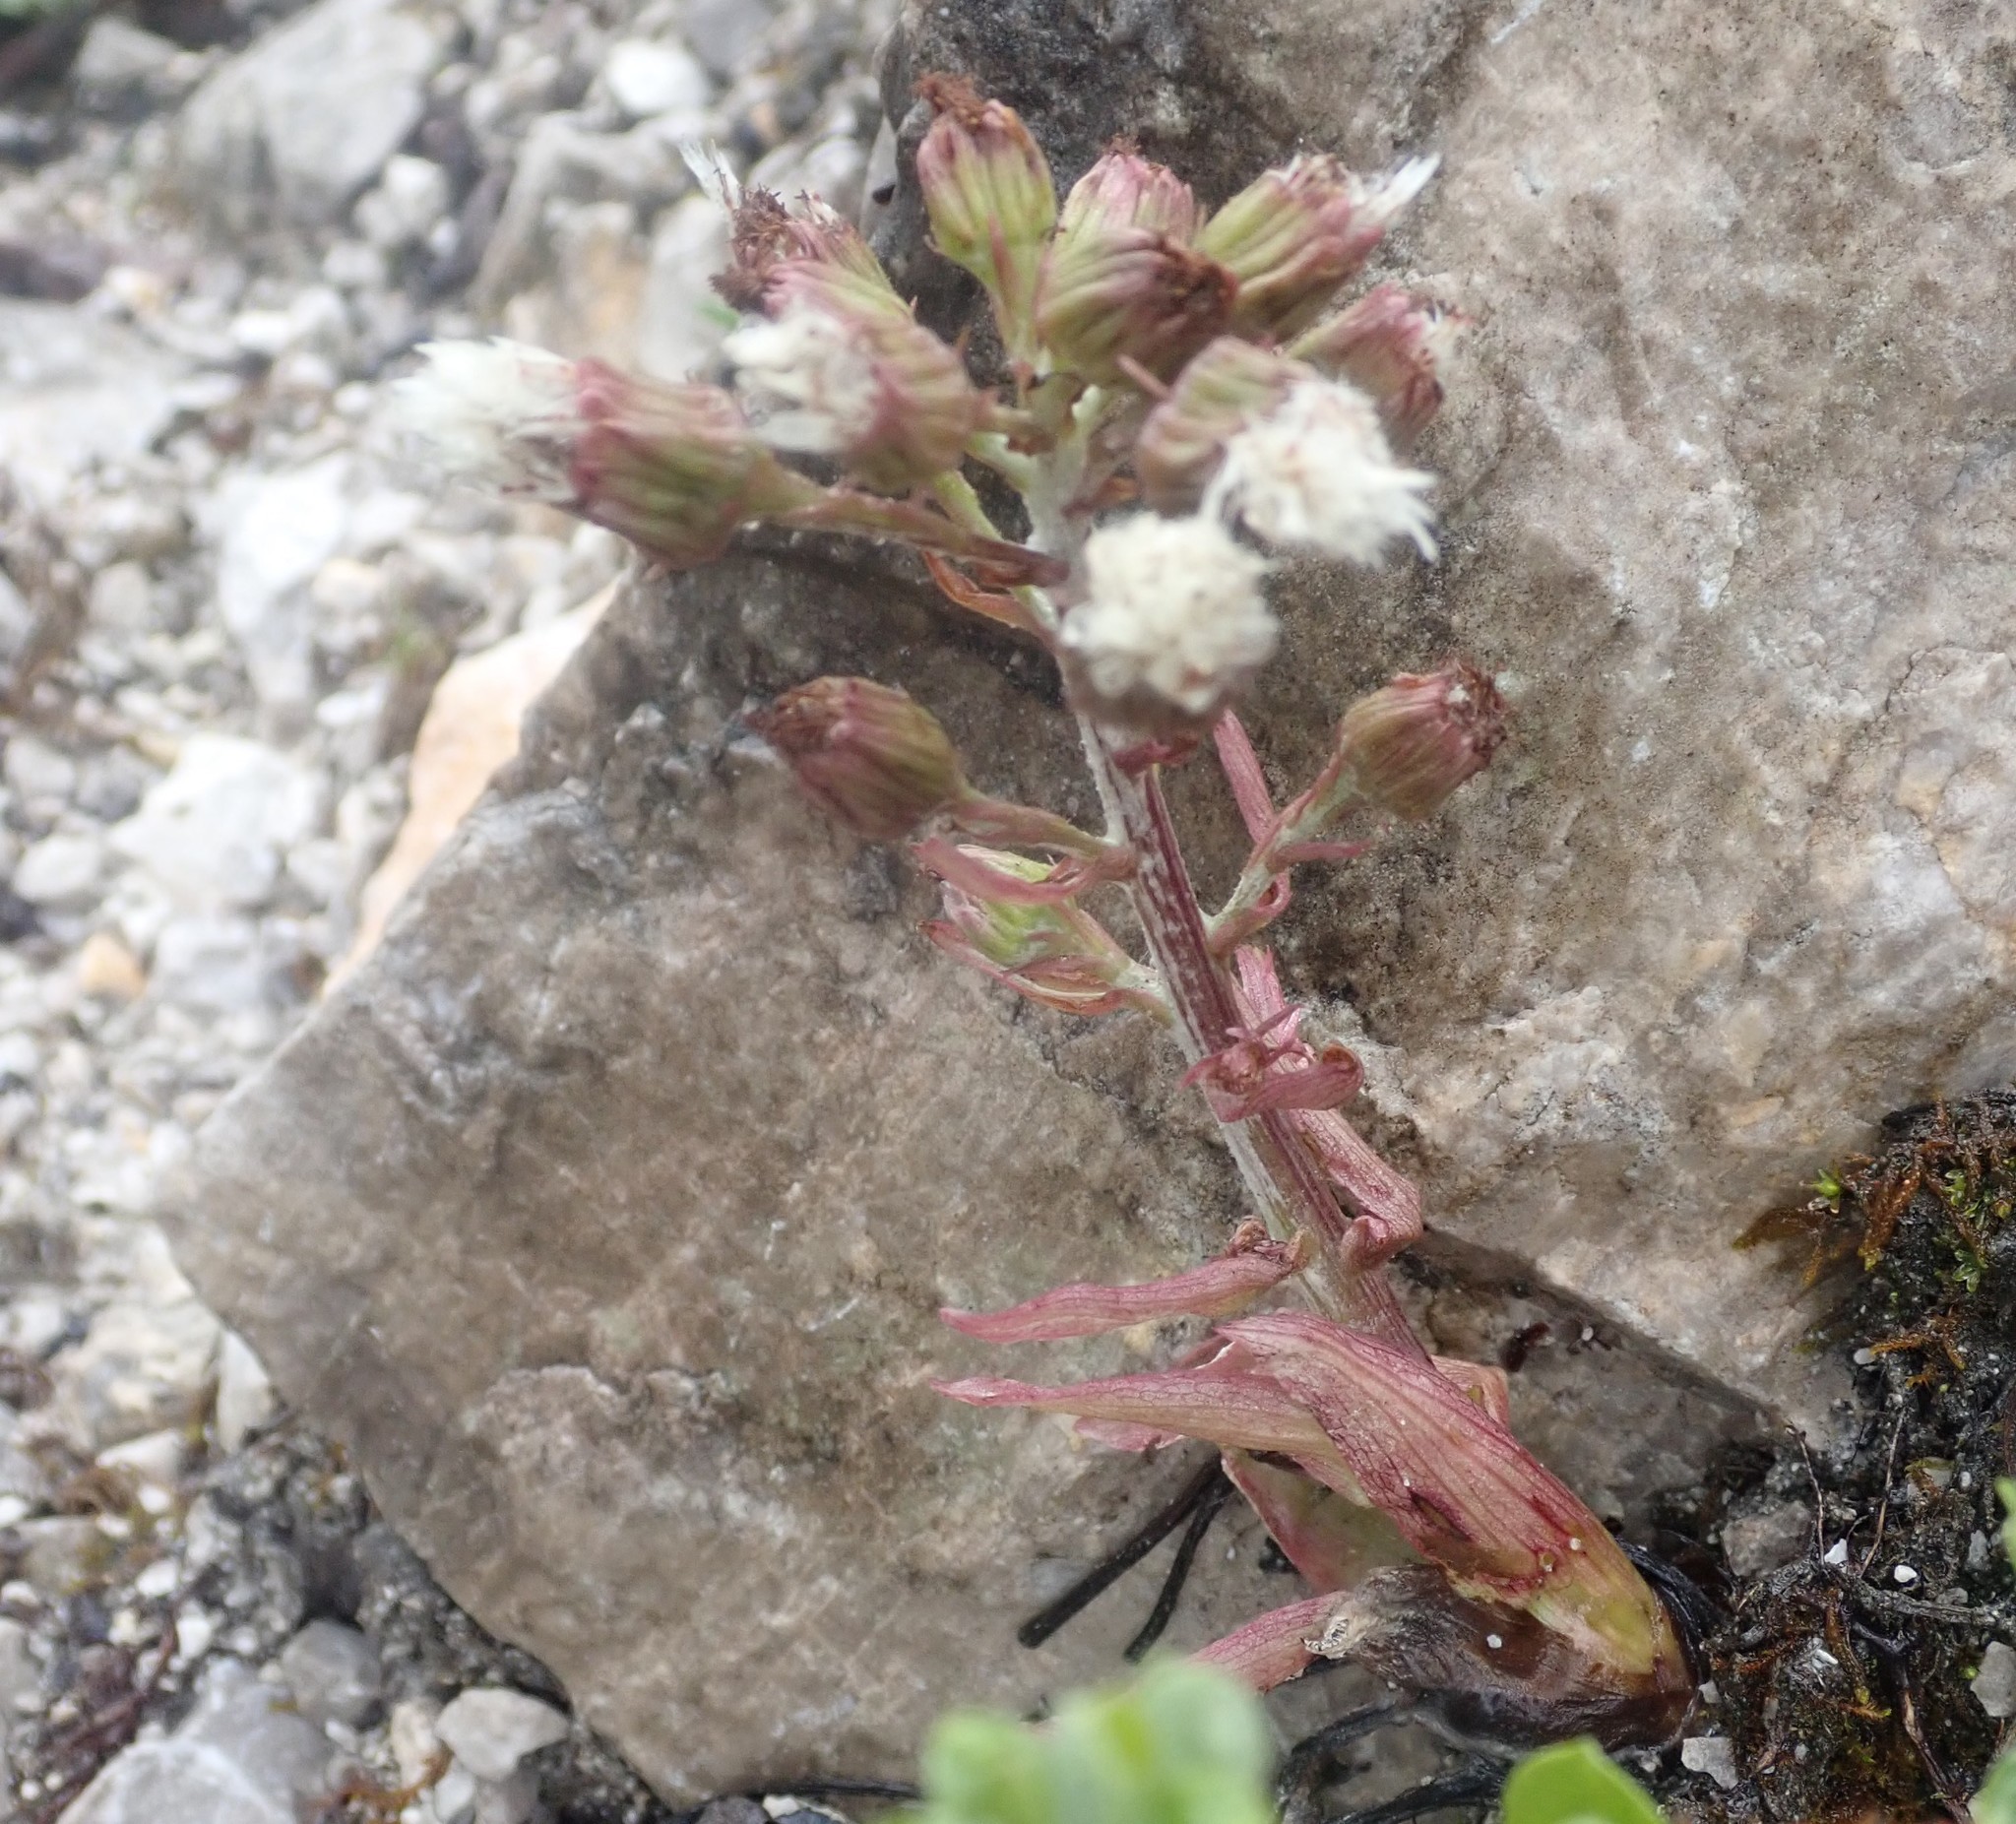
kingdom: Plantae
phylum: Tracheophyta
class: Magnoliopsida
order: Asterales
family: Asteraceae
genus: Petasites
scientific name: Petasites hybridus
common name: Butterbur
